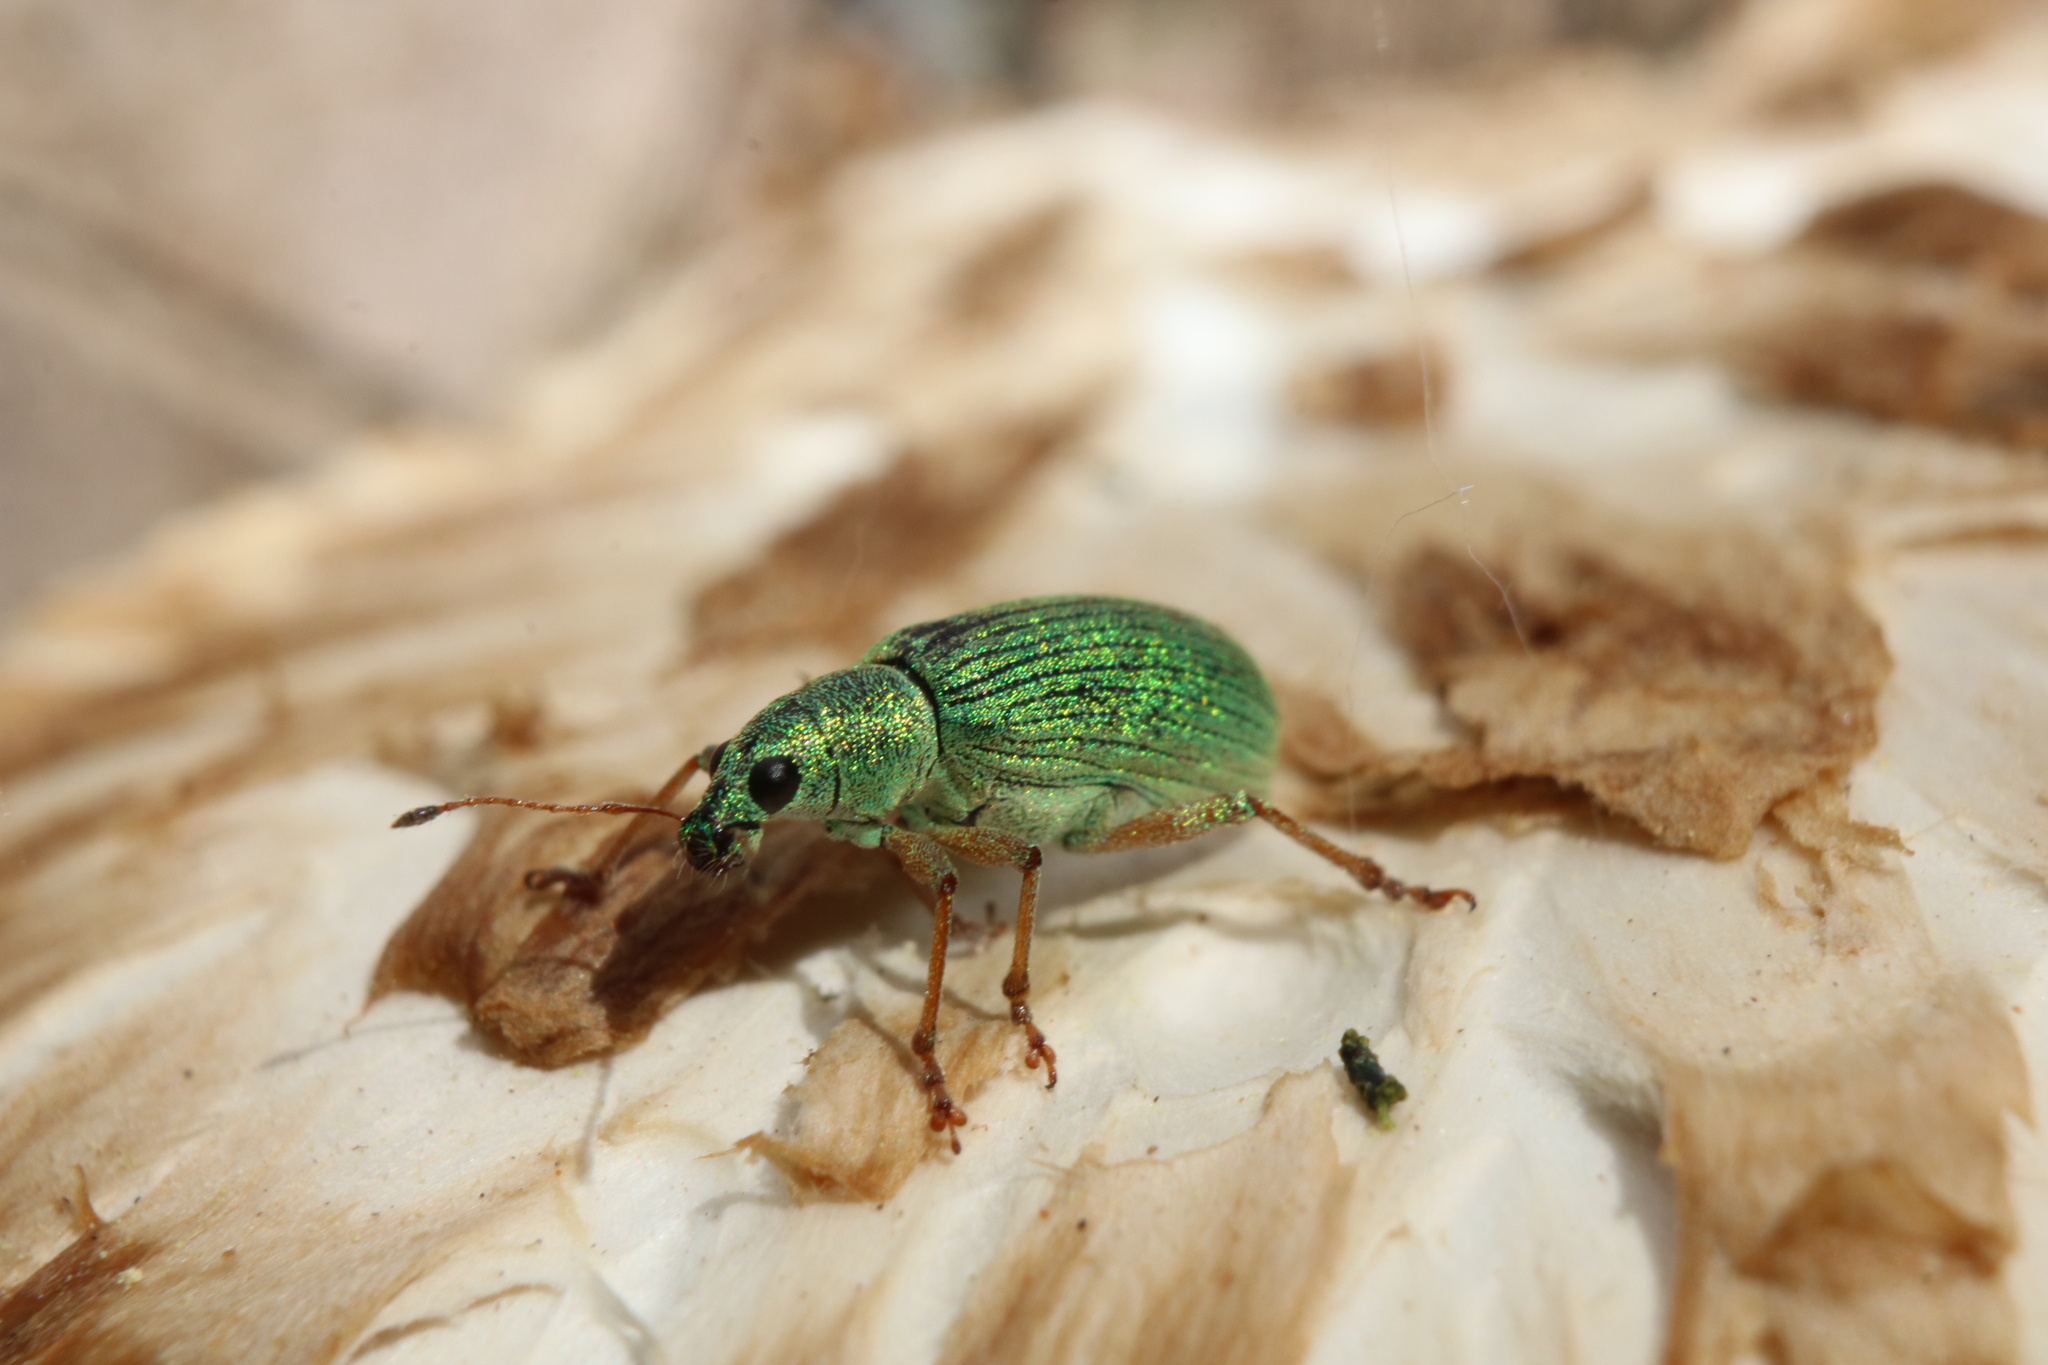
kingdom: Animalia
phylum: Arthropoda
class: Insecta
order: Coleoptera
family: Curculionidae
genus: Polydrusus
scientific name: Polydrusus formosus
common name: Weevil
